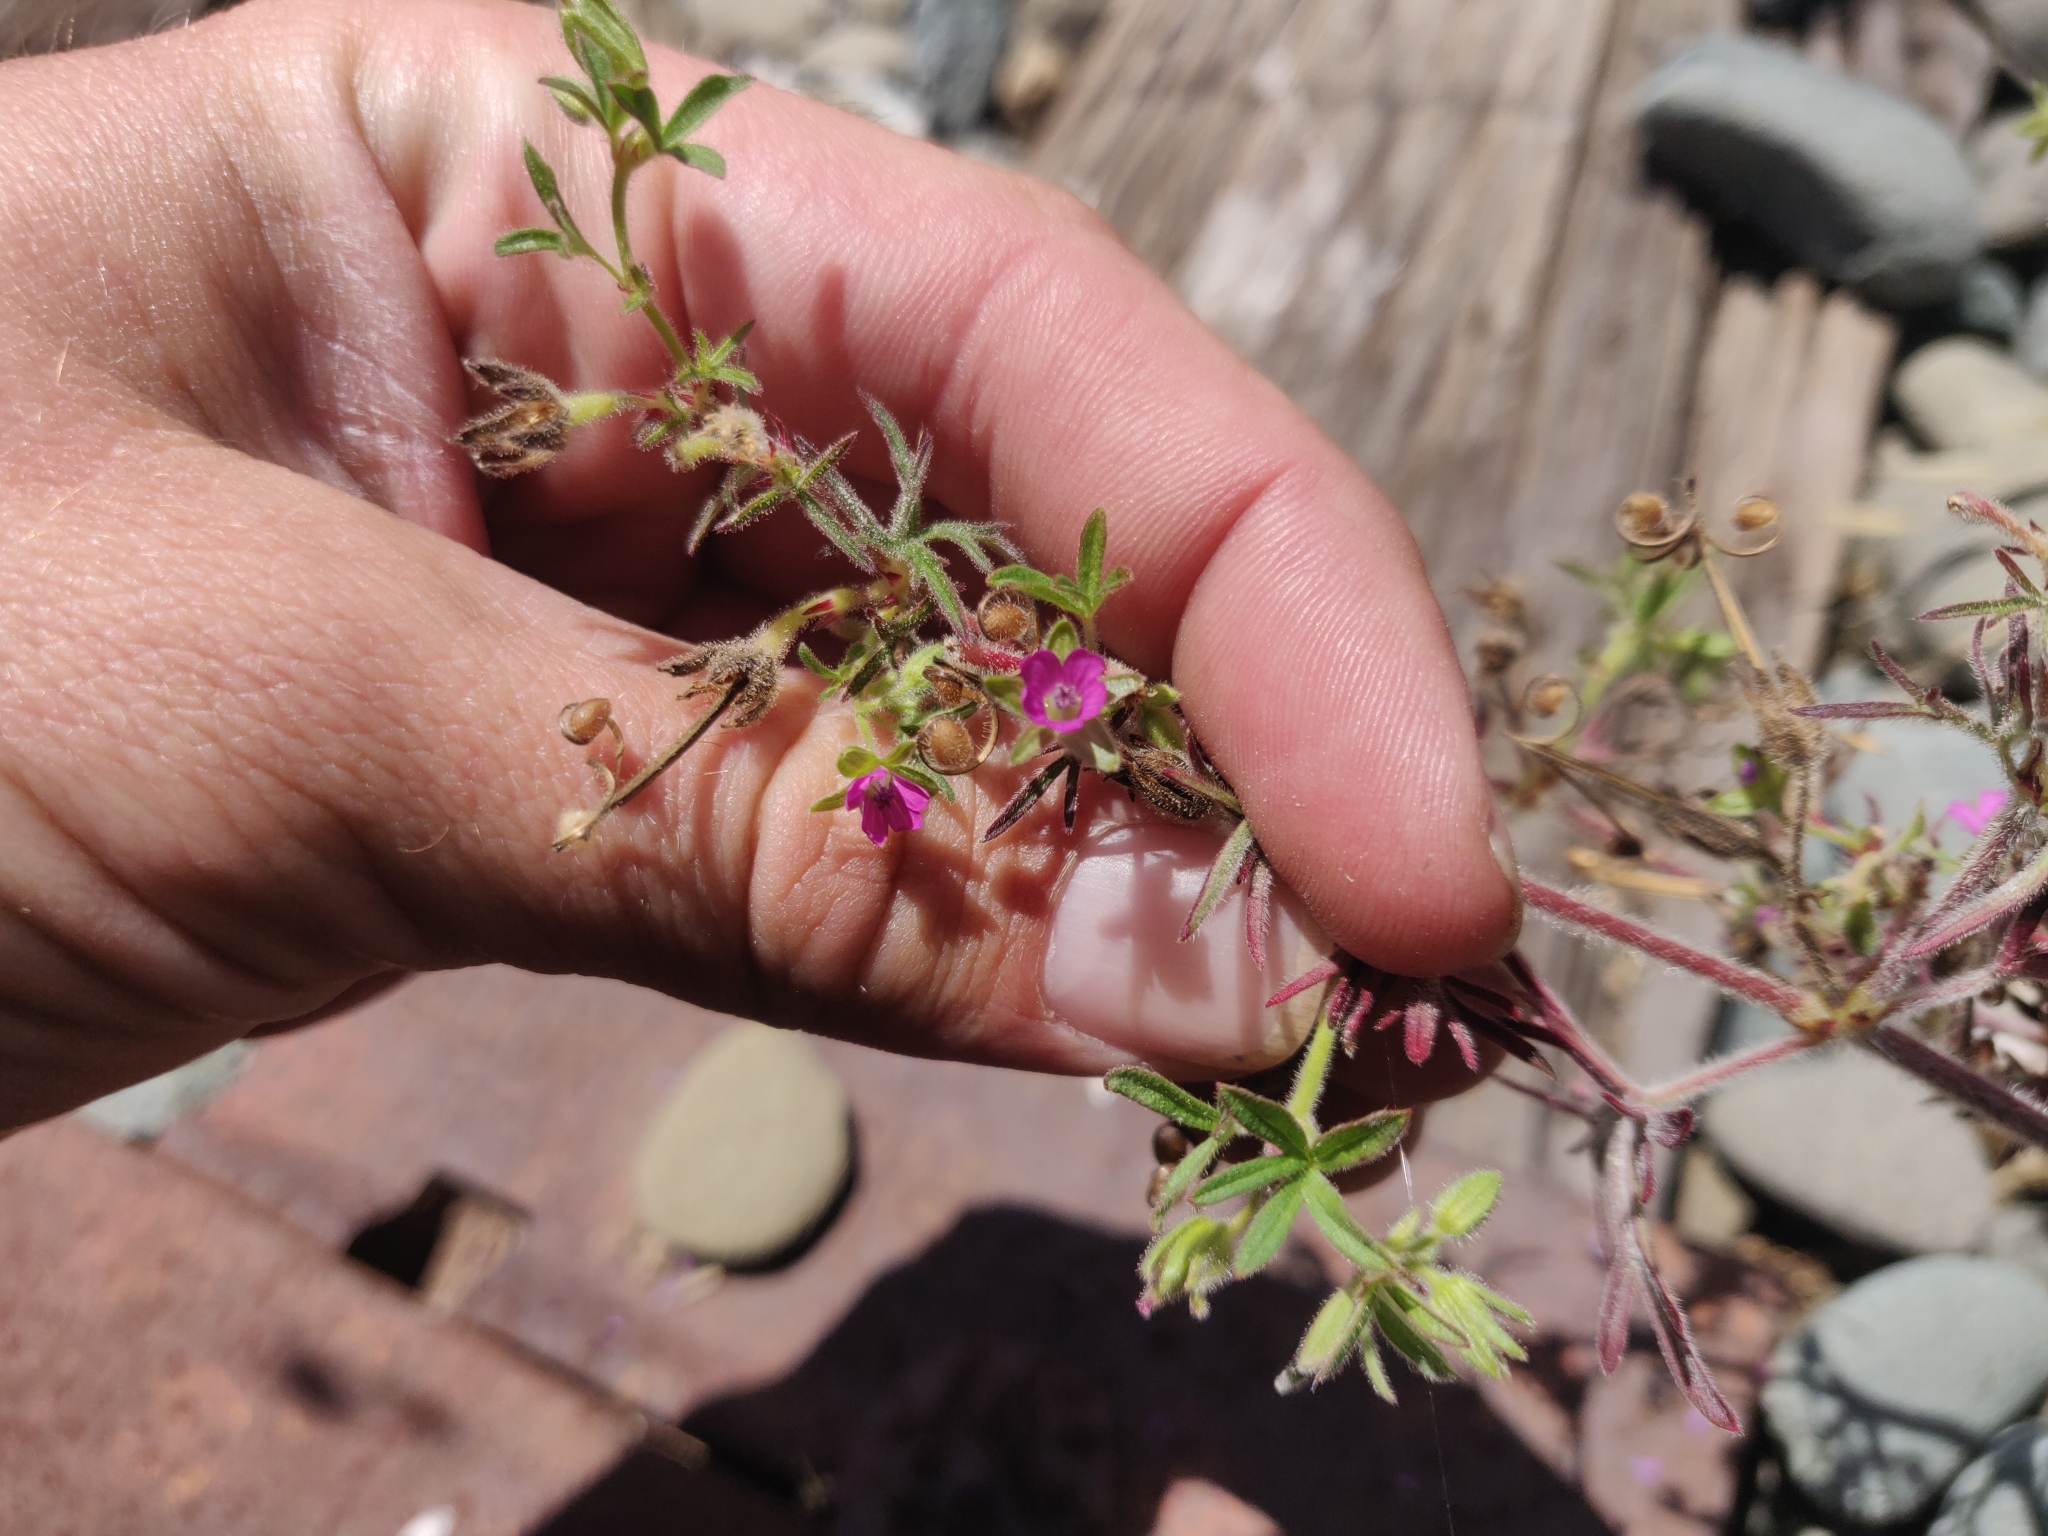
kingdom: Plantae
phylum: Tracheophyta
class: Magnoliopsida
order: Geraniales
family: Geraniaceae
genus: Geranium
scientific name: Geranium dissectum
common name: Cut-leaved crane's-bill
